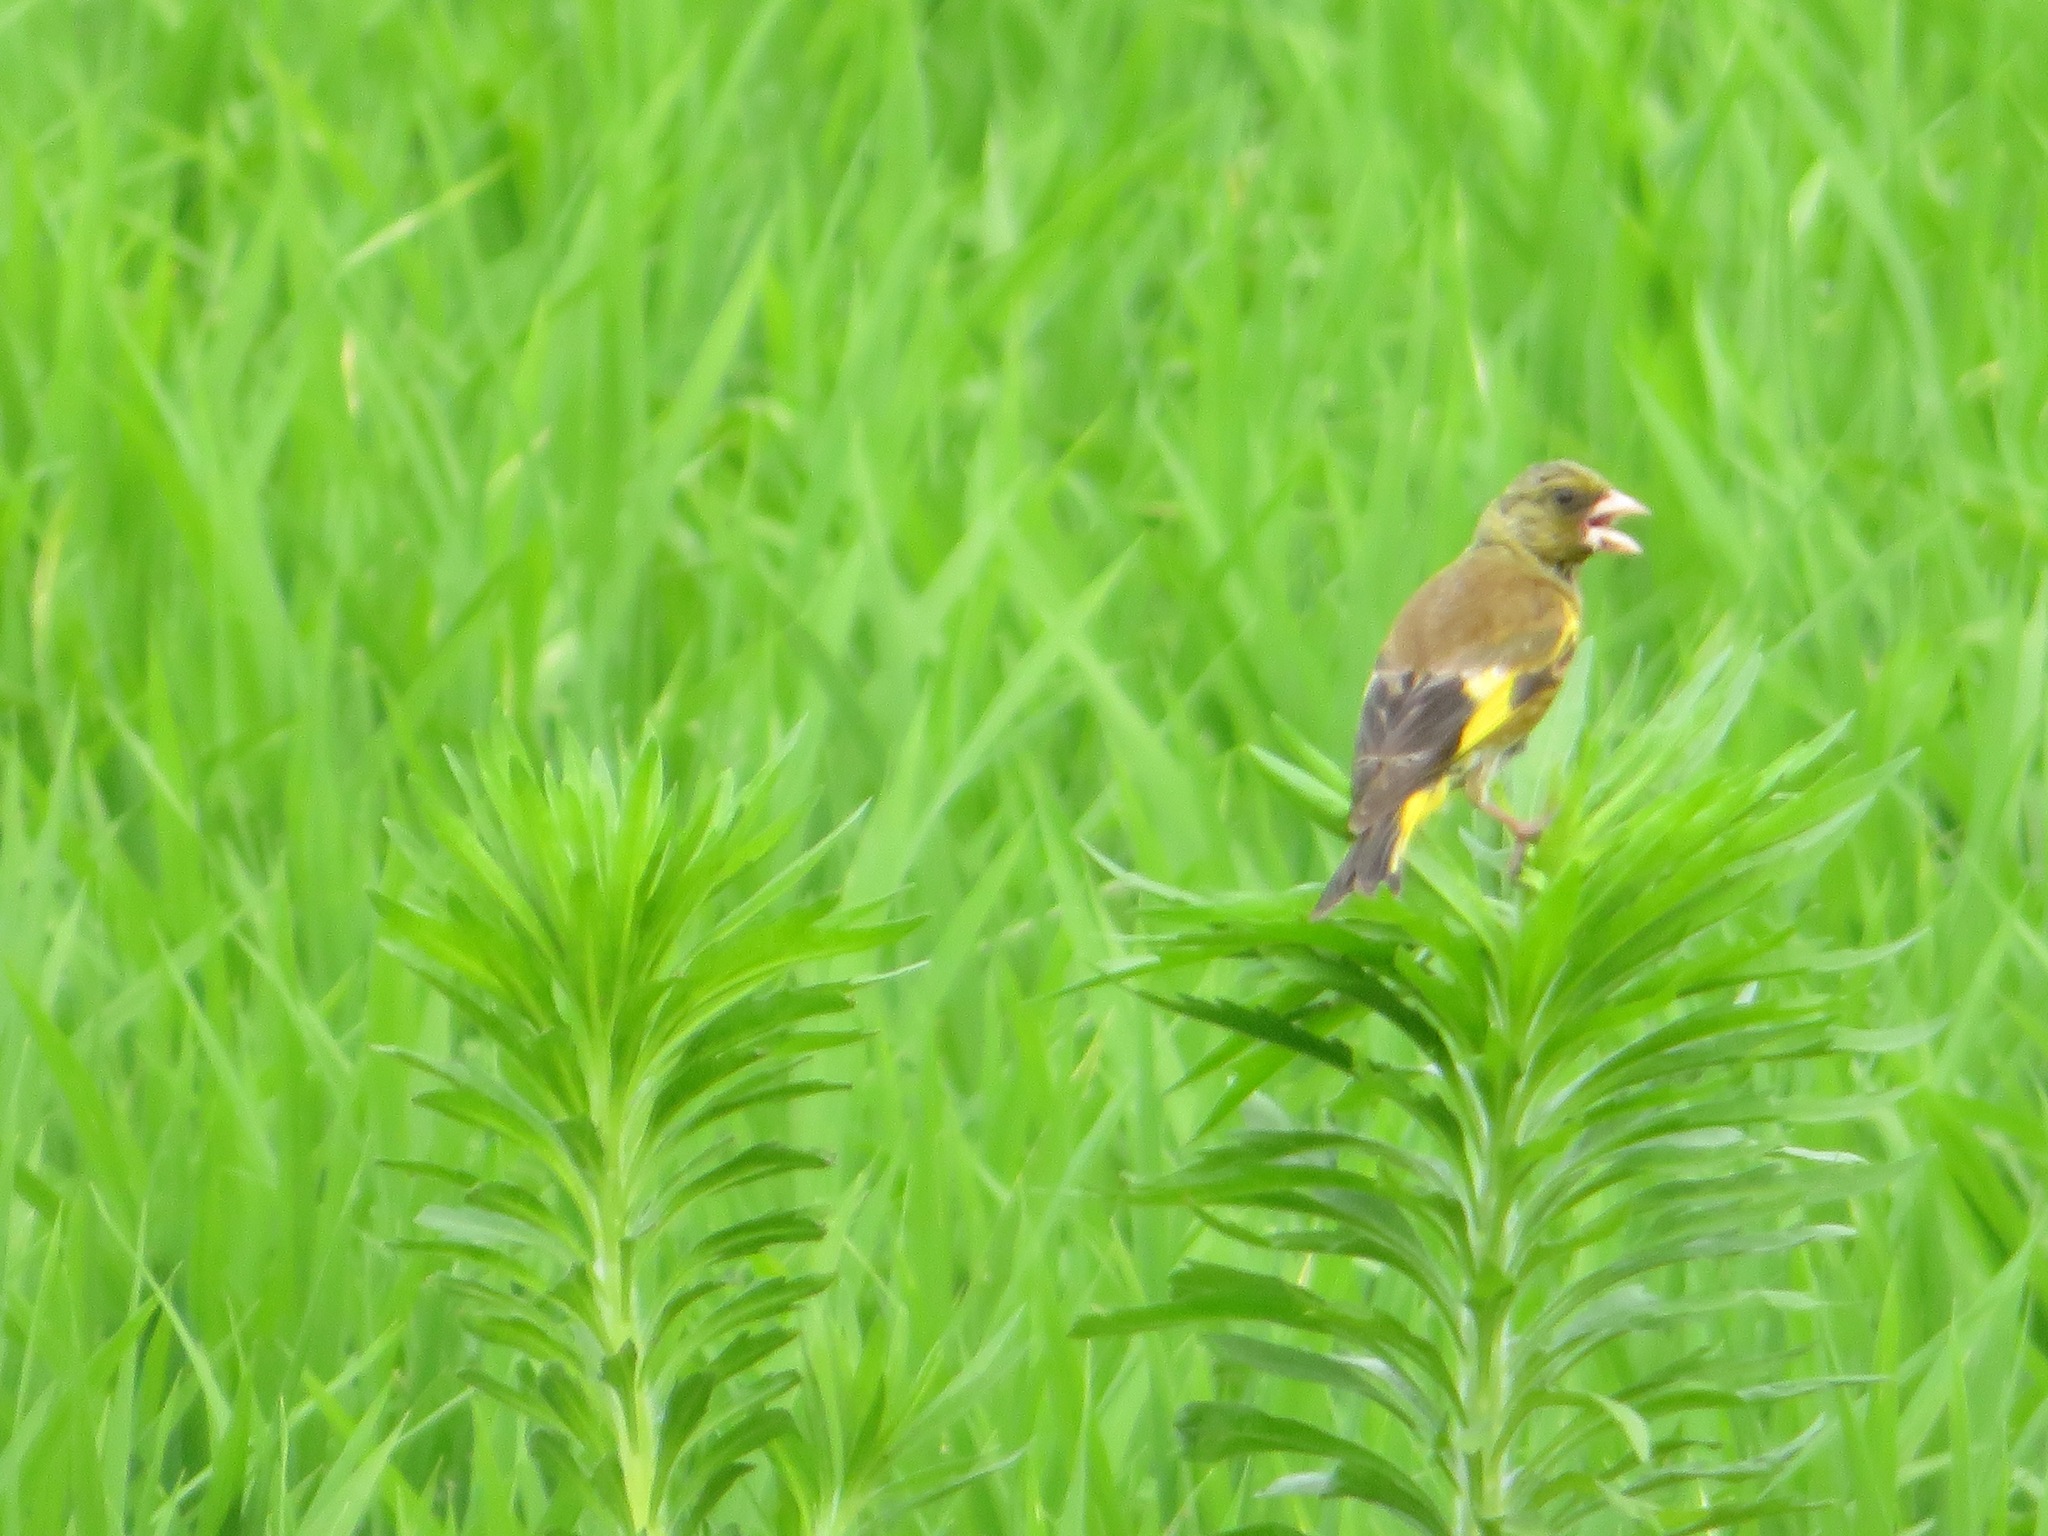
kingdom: Plantae
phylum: Tracheophyta
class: Liliopsida
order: Poales
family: Poaceae
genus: Chloris
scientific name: Chloris sinica
